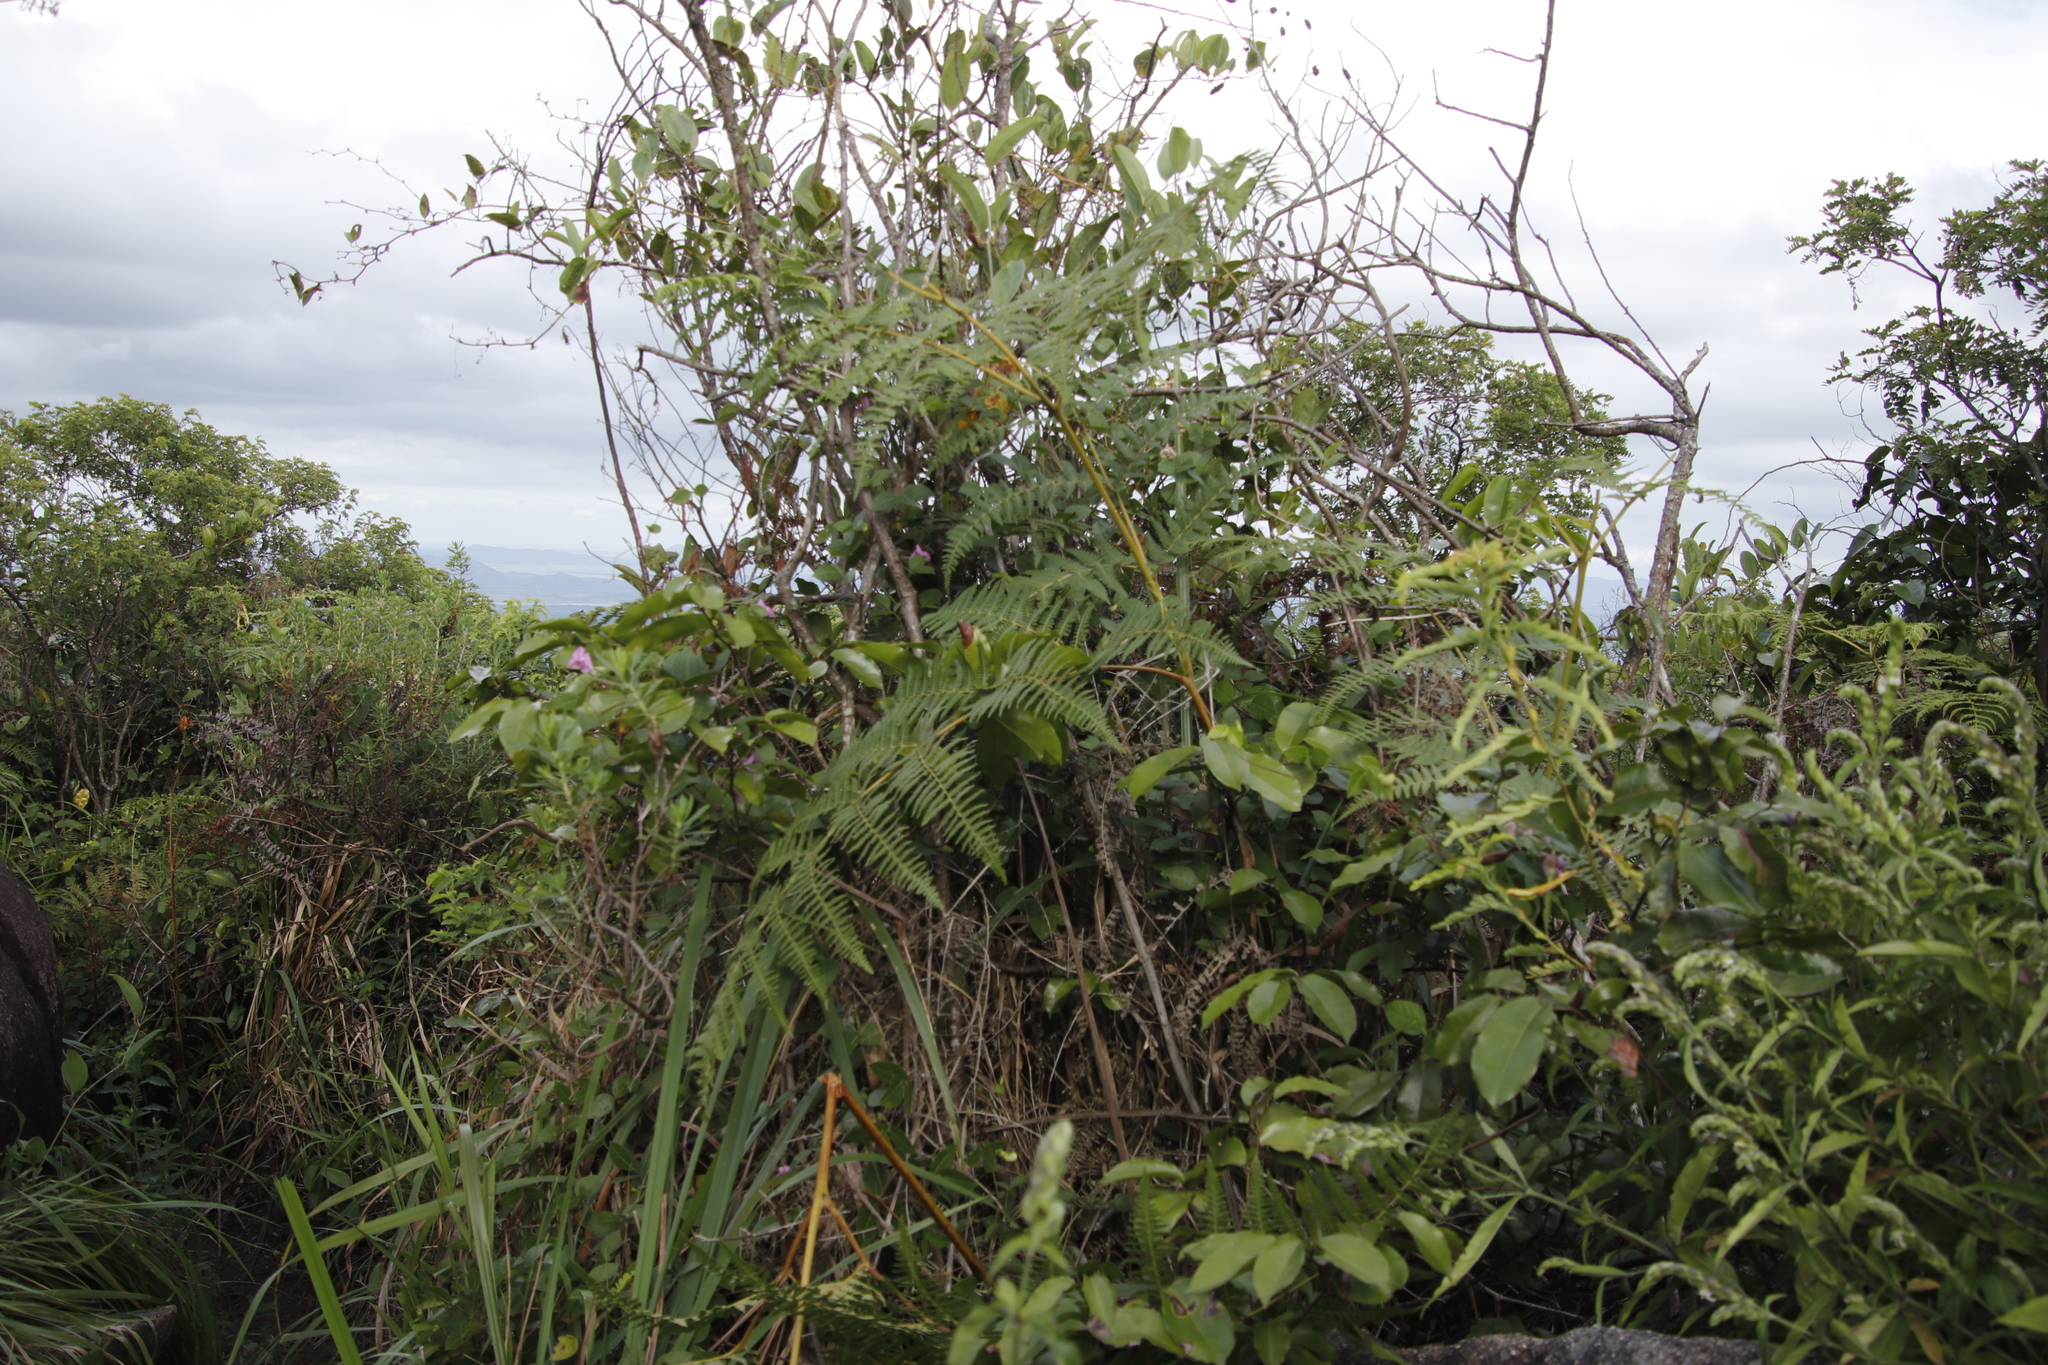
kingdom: Plantae
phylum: Tracheophyta
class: Polypodiopsida
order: Polypodiales
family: Dennstaedtiaceae
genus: Pteridium
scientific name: Pteridium aquilinum
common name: Bracken
